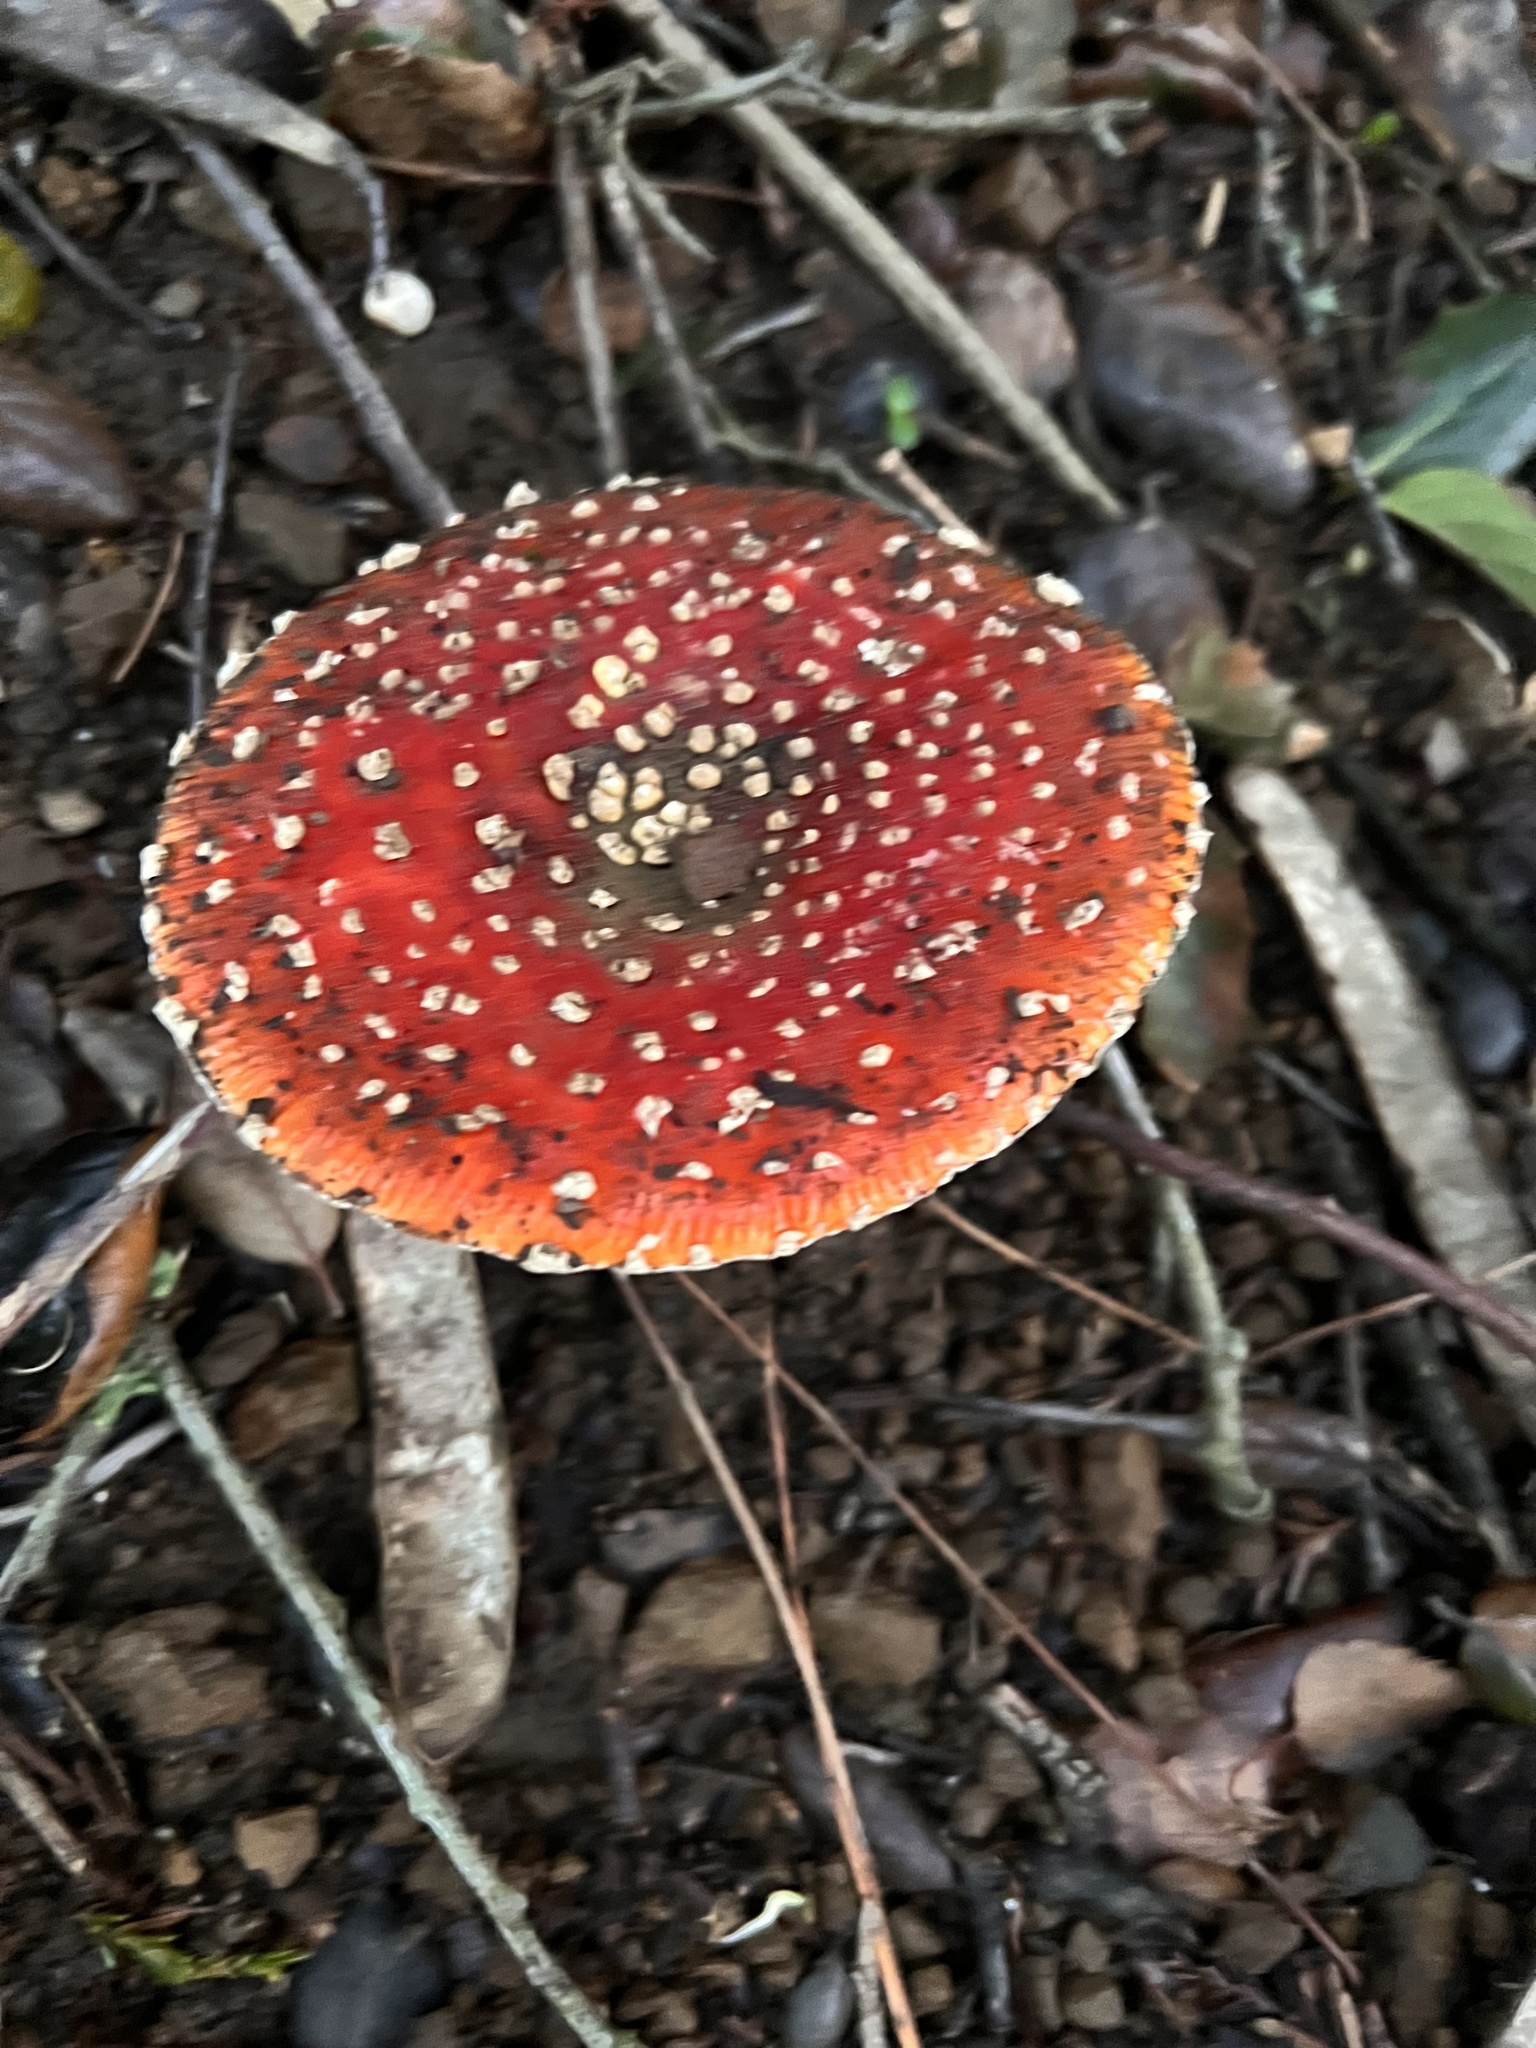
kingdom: Fungi
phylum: Basidiomycota
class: Agaricomycetes
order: Agaricales
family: Amanitaceae
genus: Amanita
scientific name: Amanita muscaria
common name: Fly agaric
